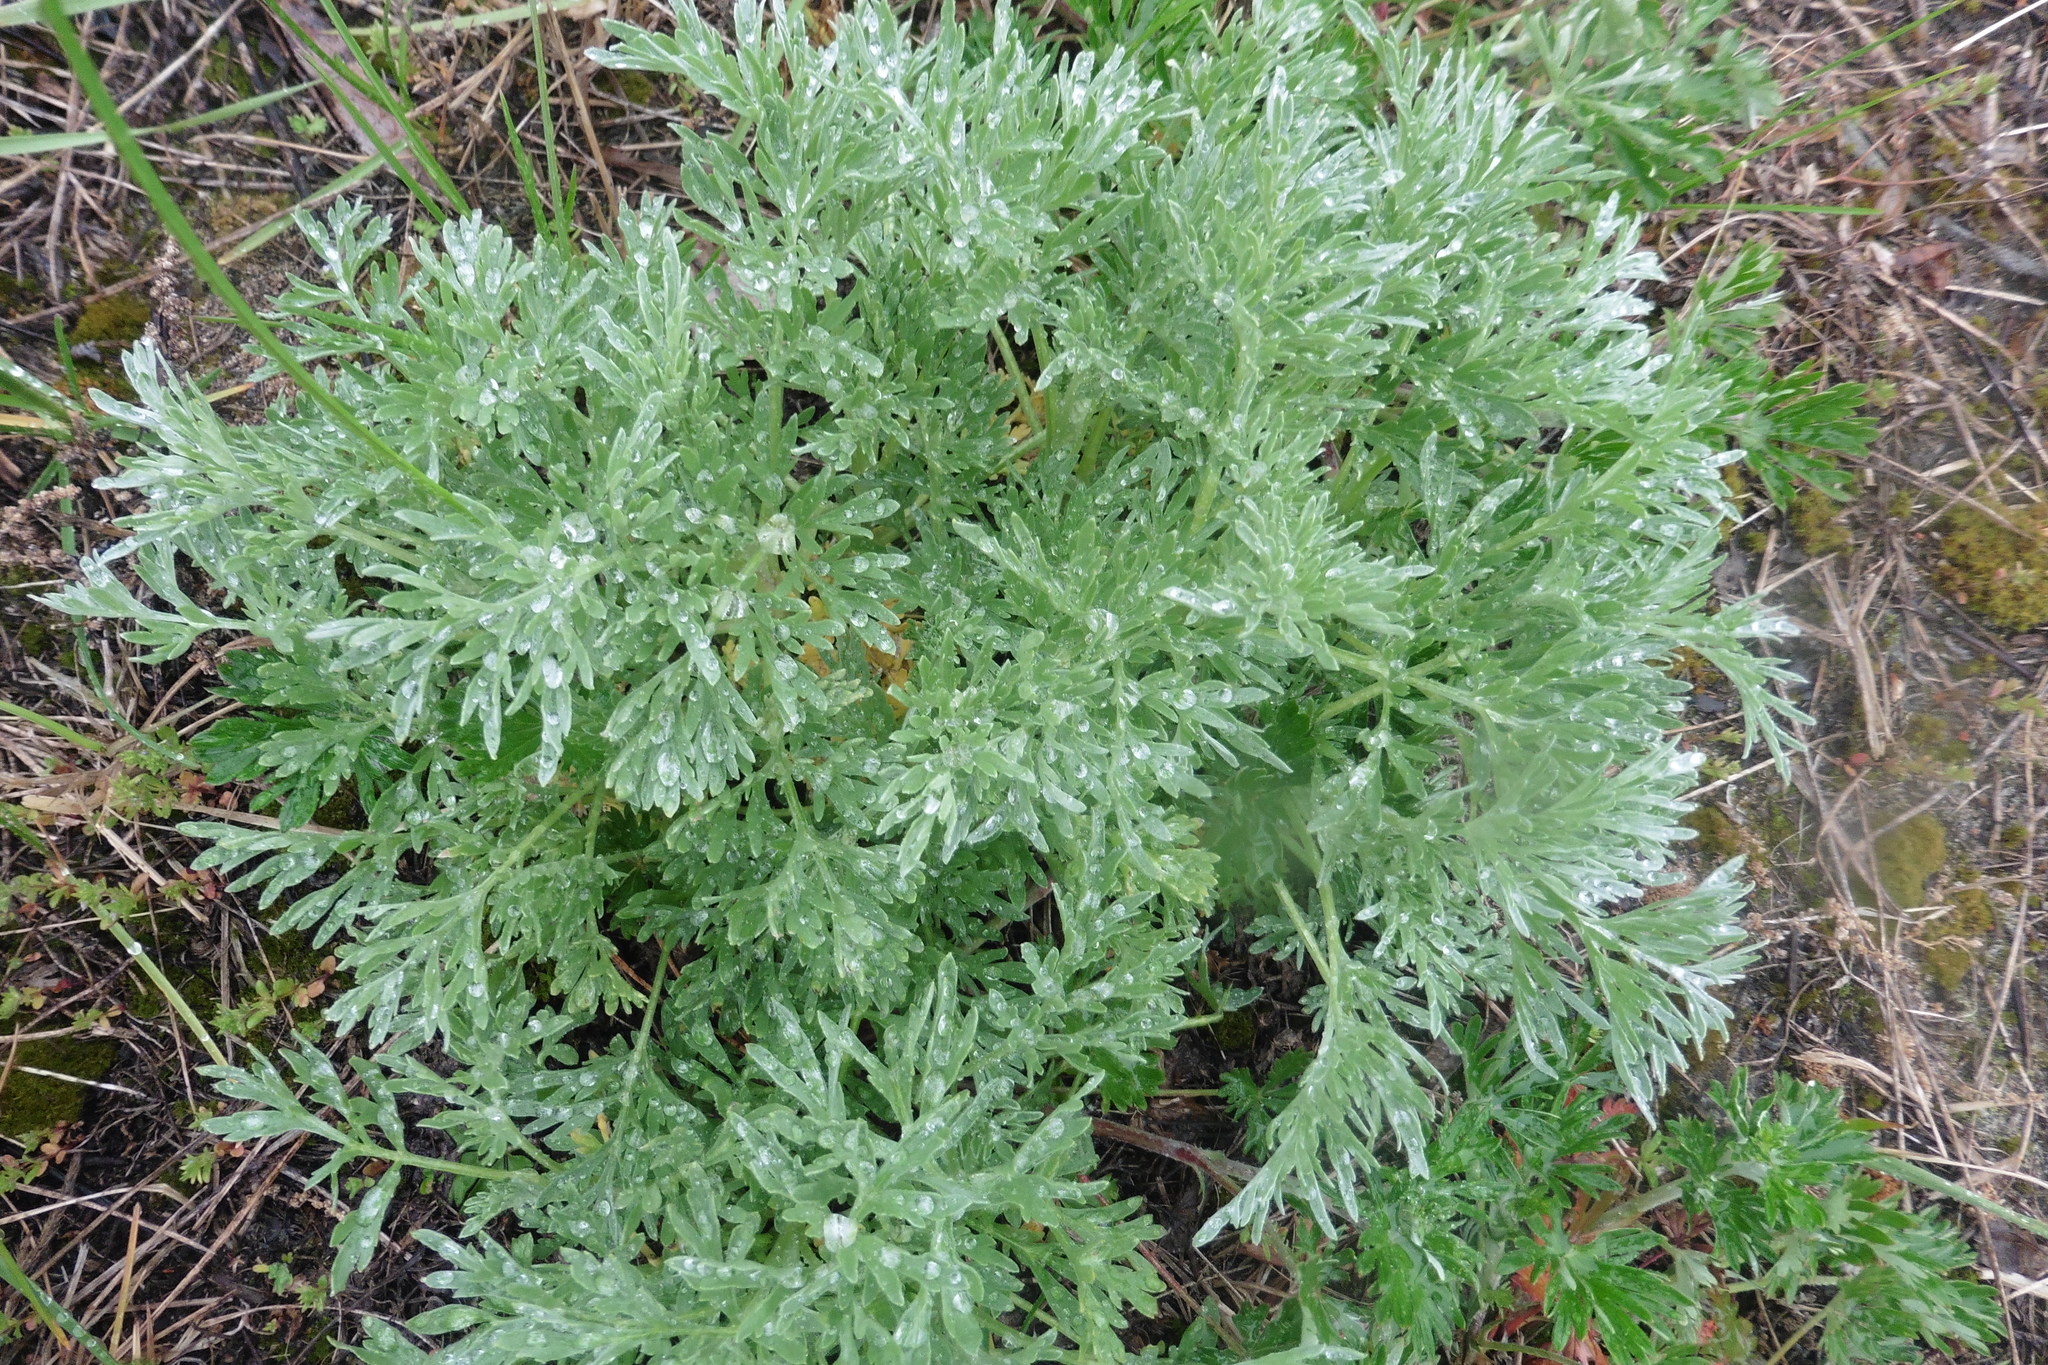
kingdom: Plantae
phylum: Tracheophyta
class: Magnoliopsida
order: Asterales
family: Asteraceae
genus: Artemisia
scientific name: Artemisia absinthium
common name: Wormwood
